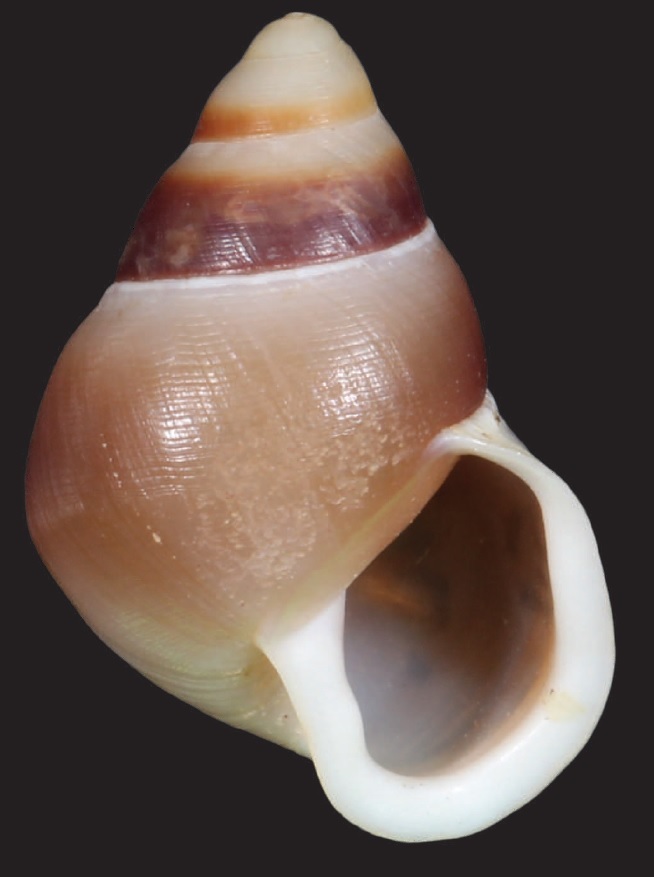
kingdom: Animalia
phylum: Mollusca
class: Gastropoda
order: Stylommatophora
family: Partulidae
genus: Partula
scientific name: Partula langfordi
